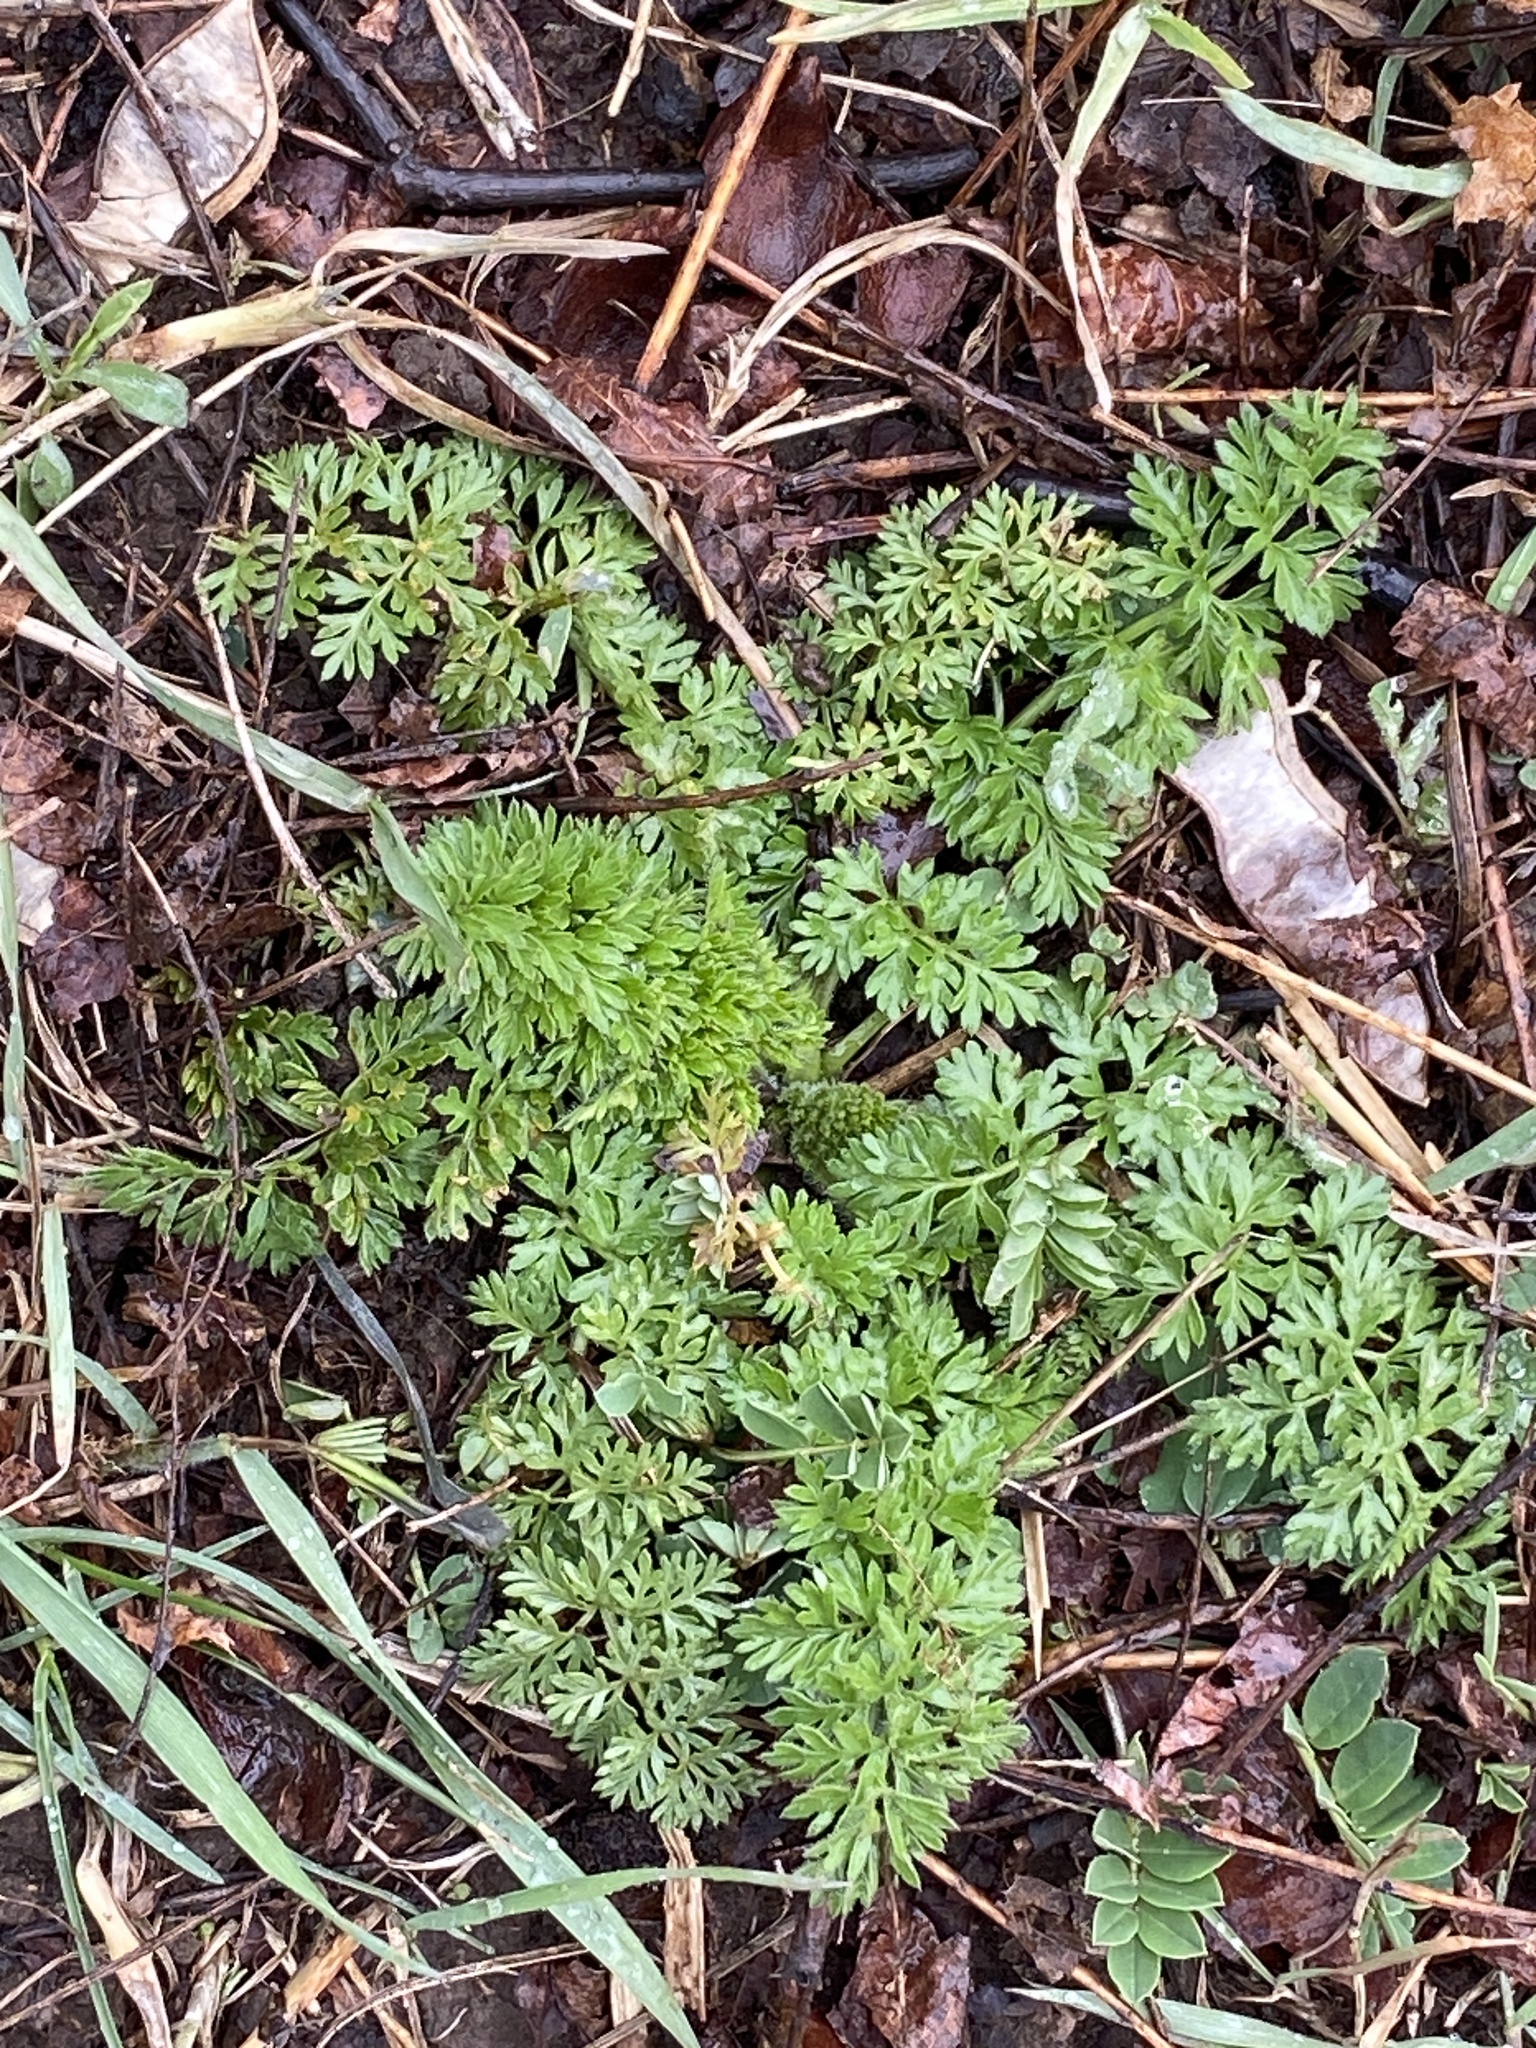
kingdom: Plantae
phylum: Tracheophyta
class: Magnoliopsida
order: Apiales
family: Apiaceae
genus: Daucus
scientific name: Daucus carota
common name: Wild carrot
